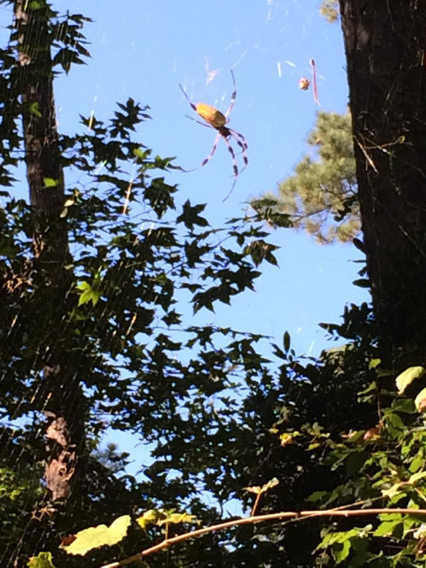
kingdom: Animalia
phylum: Arthropoda
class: Arachnida
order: Araneae
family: Araneidae
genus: Trichonephila
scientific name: Trichonephila clavipes
